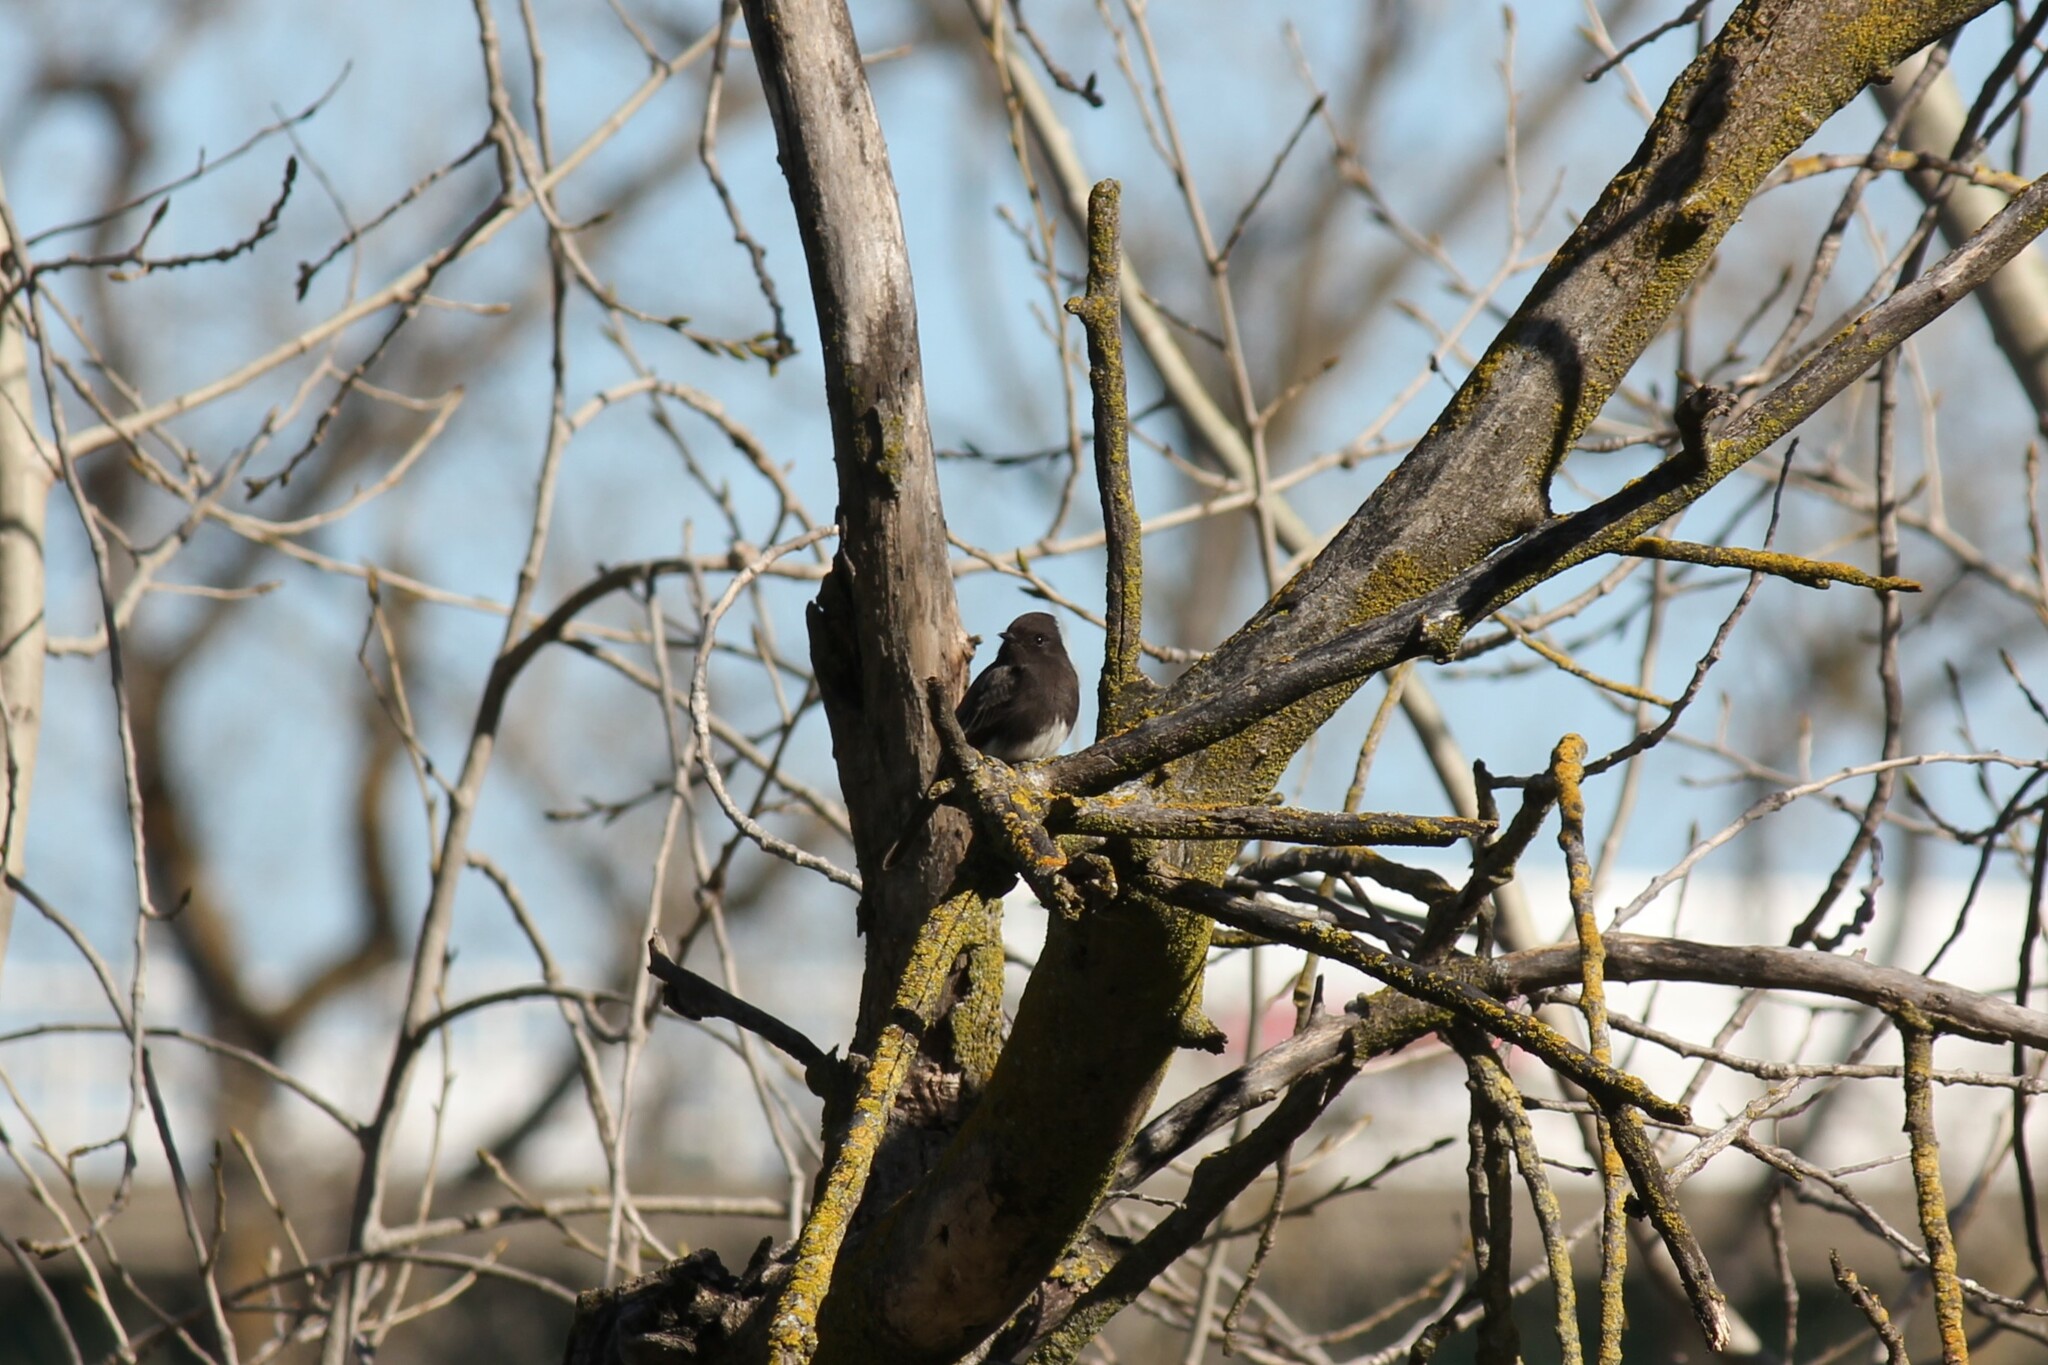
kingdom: Animalia
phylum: Chordata
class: Aves
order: Passeriformes
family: Tyrannidae
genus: Sayornis
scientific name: Sayornis nigricans
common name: Black phoebe
